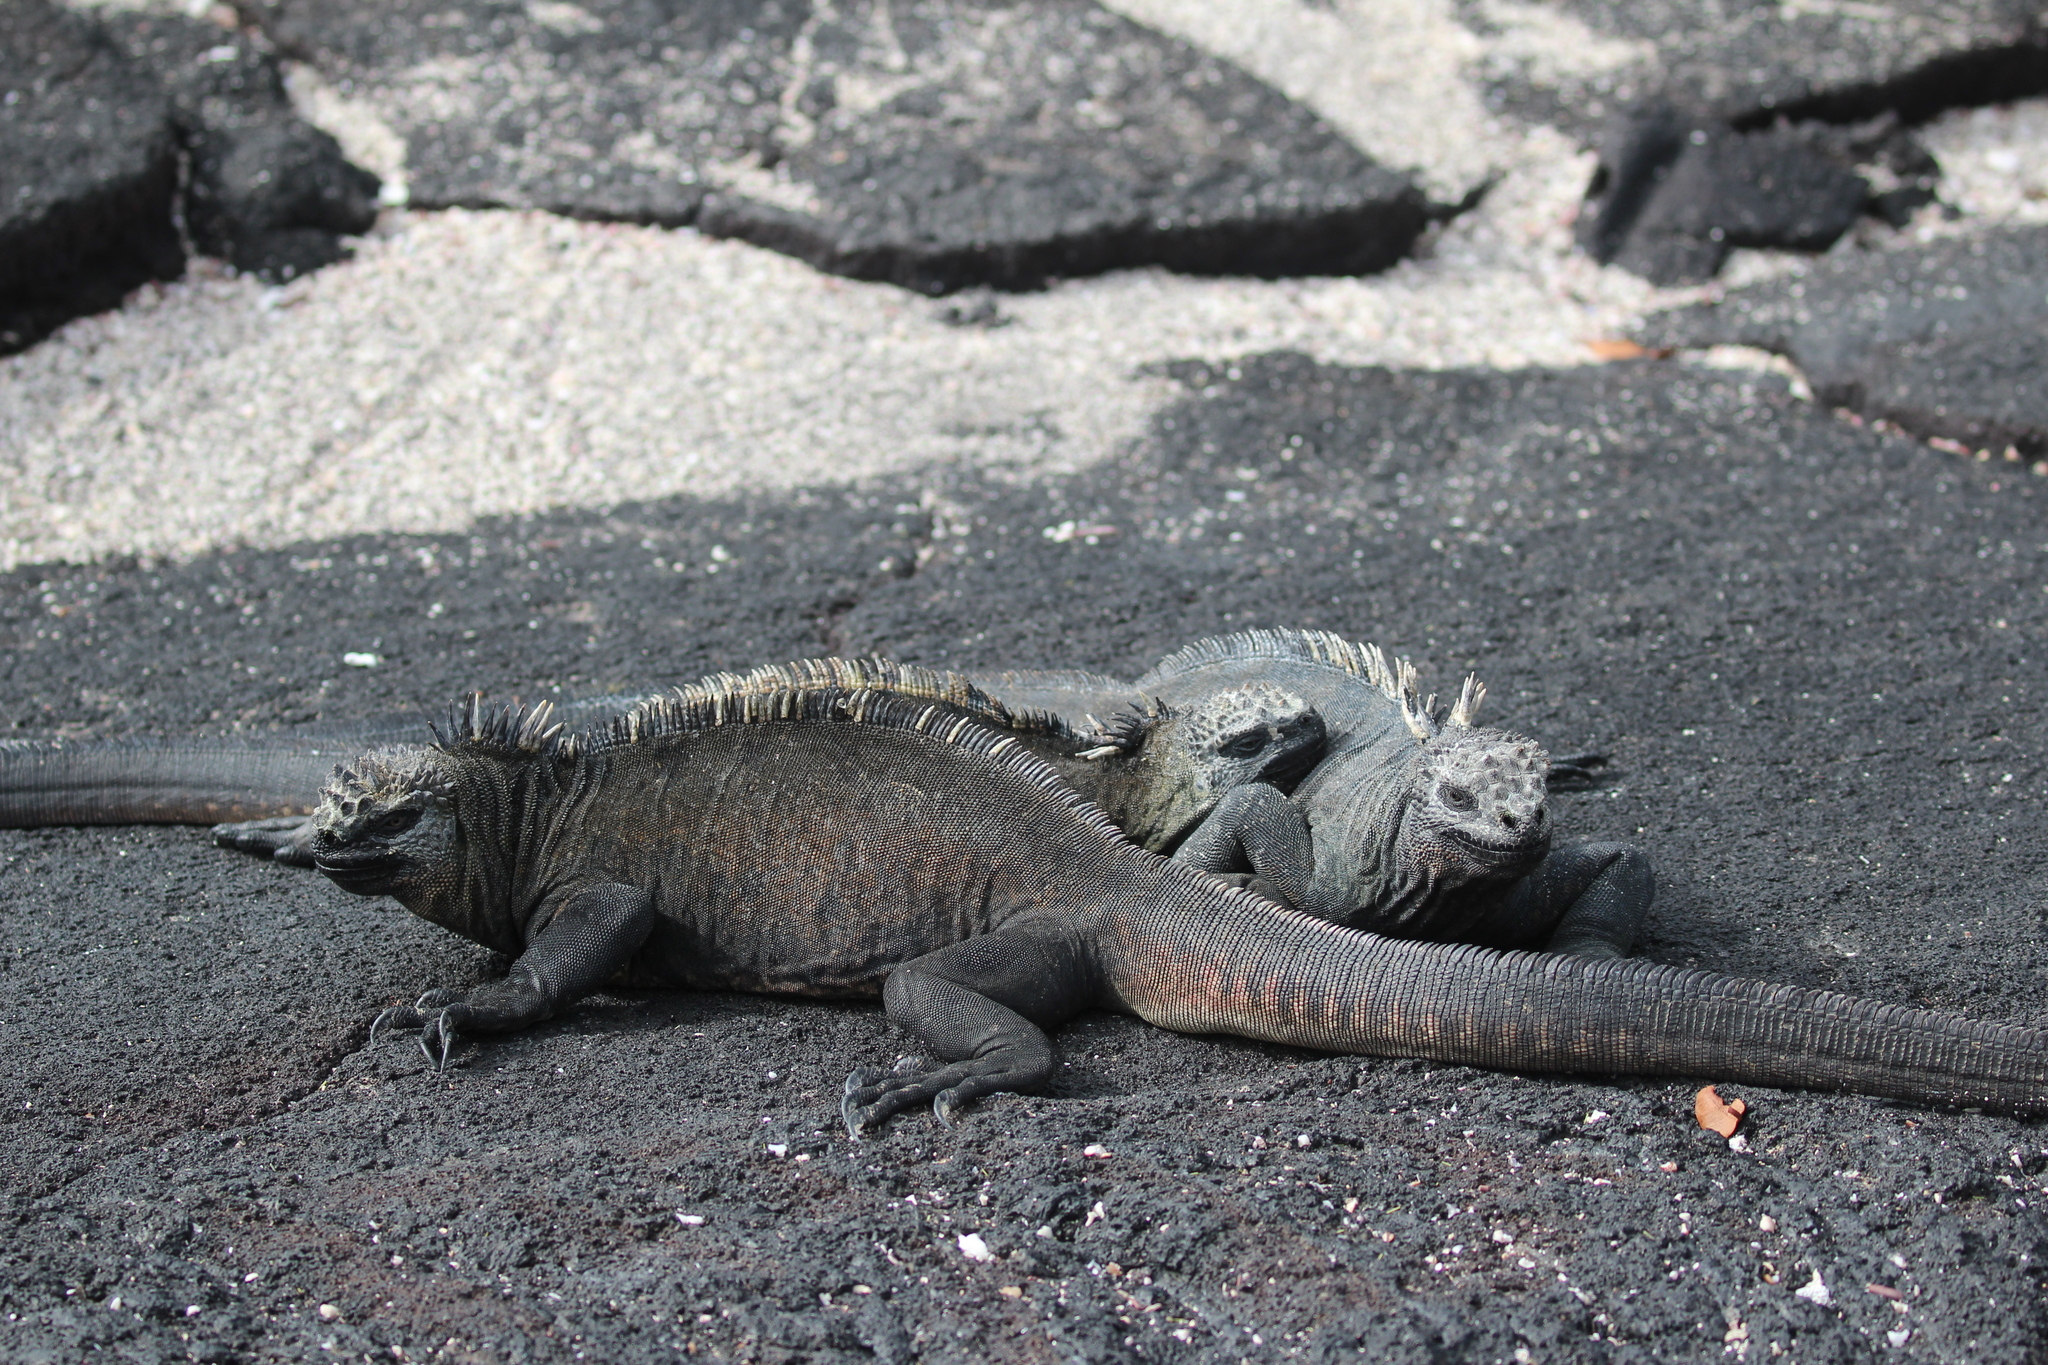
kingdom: Animalia
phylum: Chordata
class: Squamata
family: Iguanidae
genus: Amblyrhynchus
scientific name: Amblyrhynchus cristatus
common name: Marine iguana
